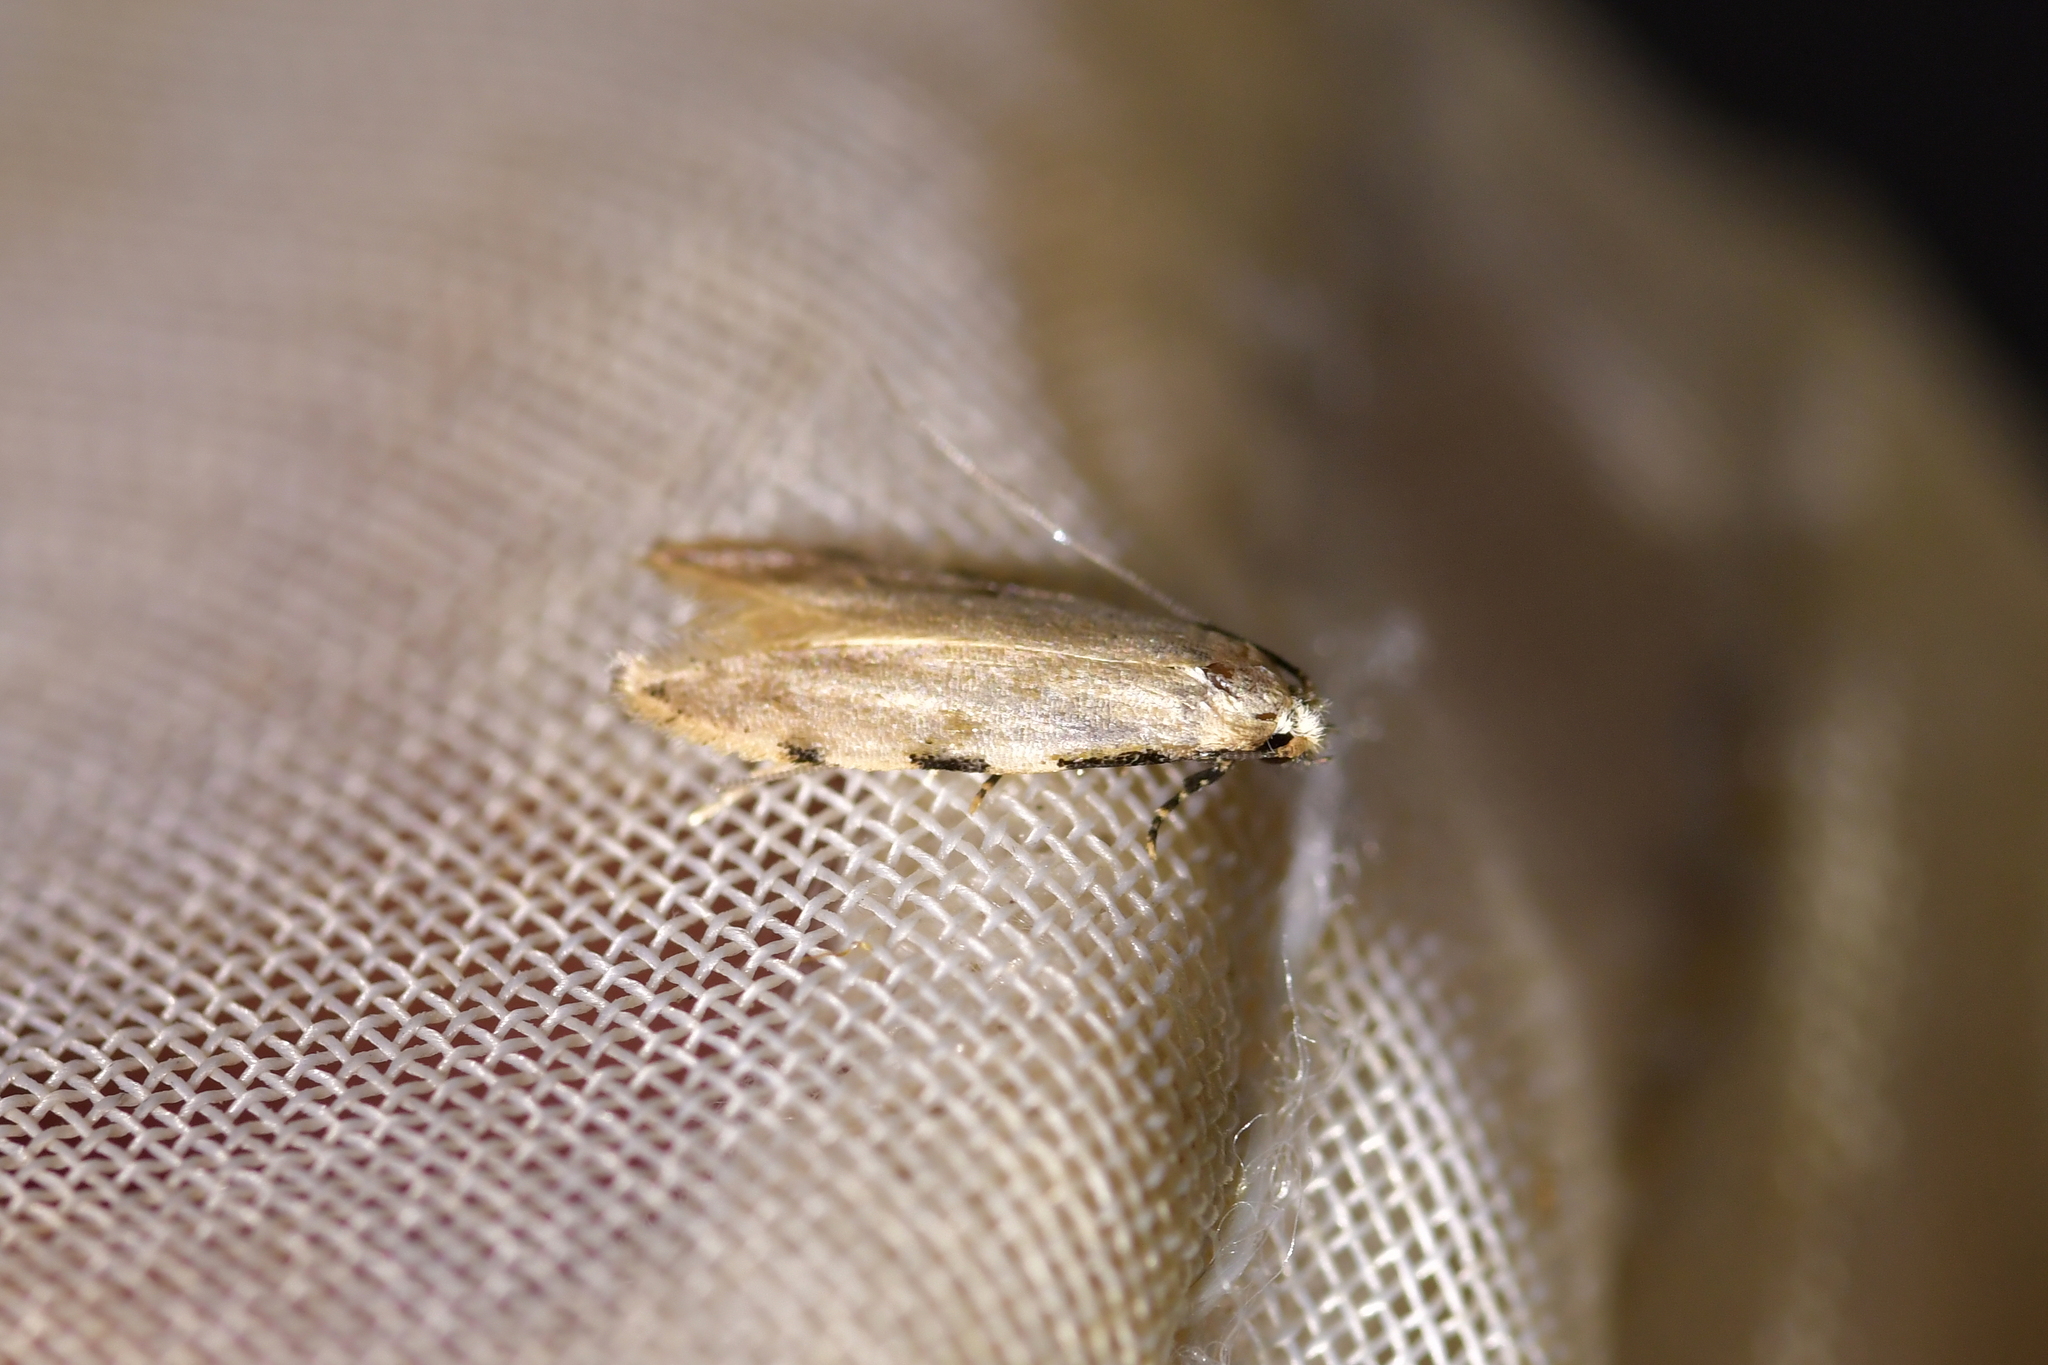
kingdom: Animalia
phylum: Arthropoda
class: Insecta
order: Lepidoptera
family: Tineidae
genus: Endophthora
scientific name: Endophthora omogramma
